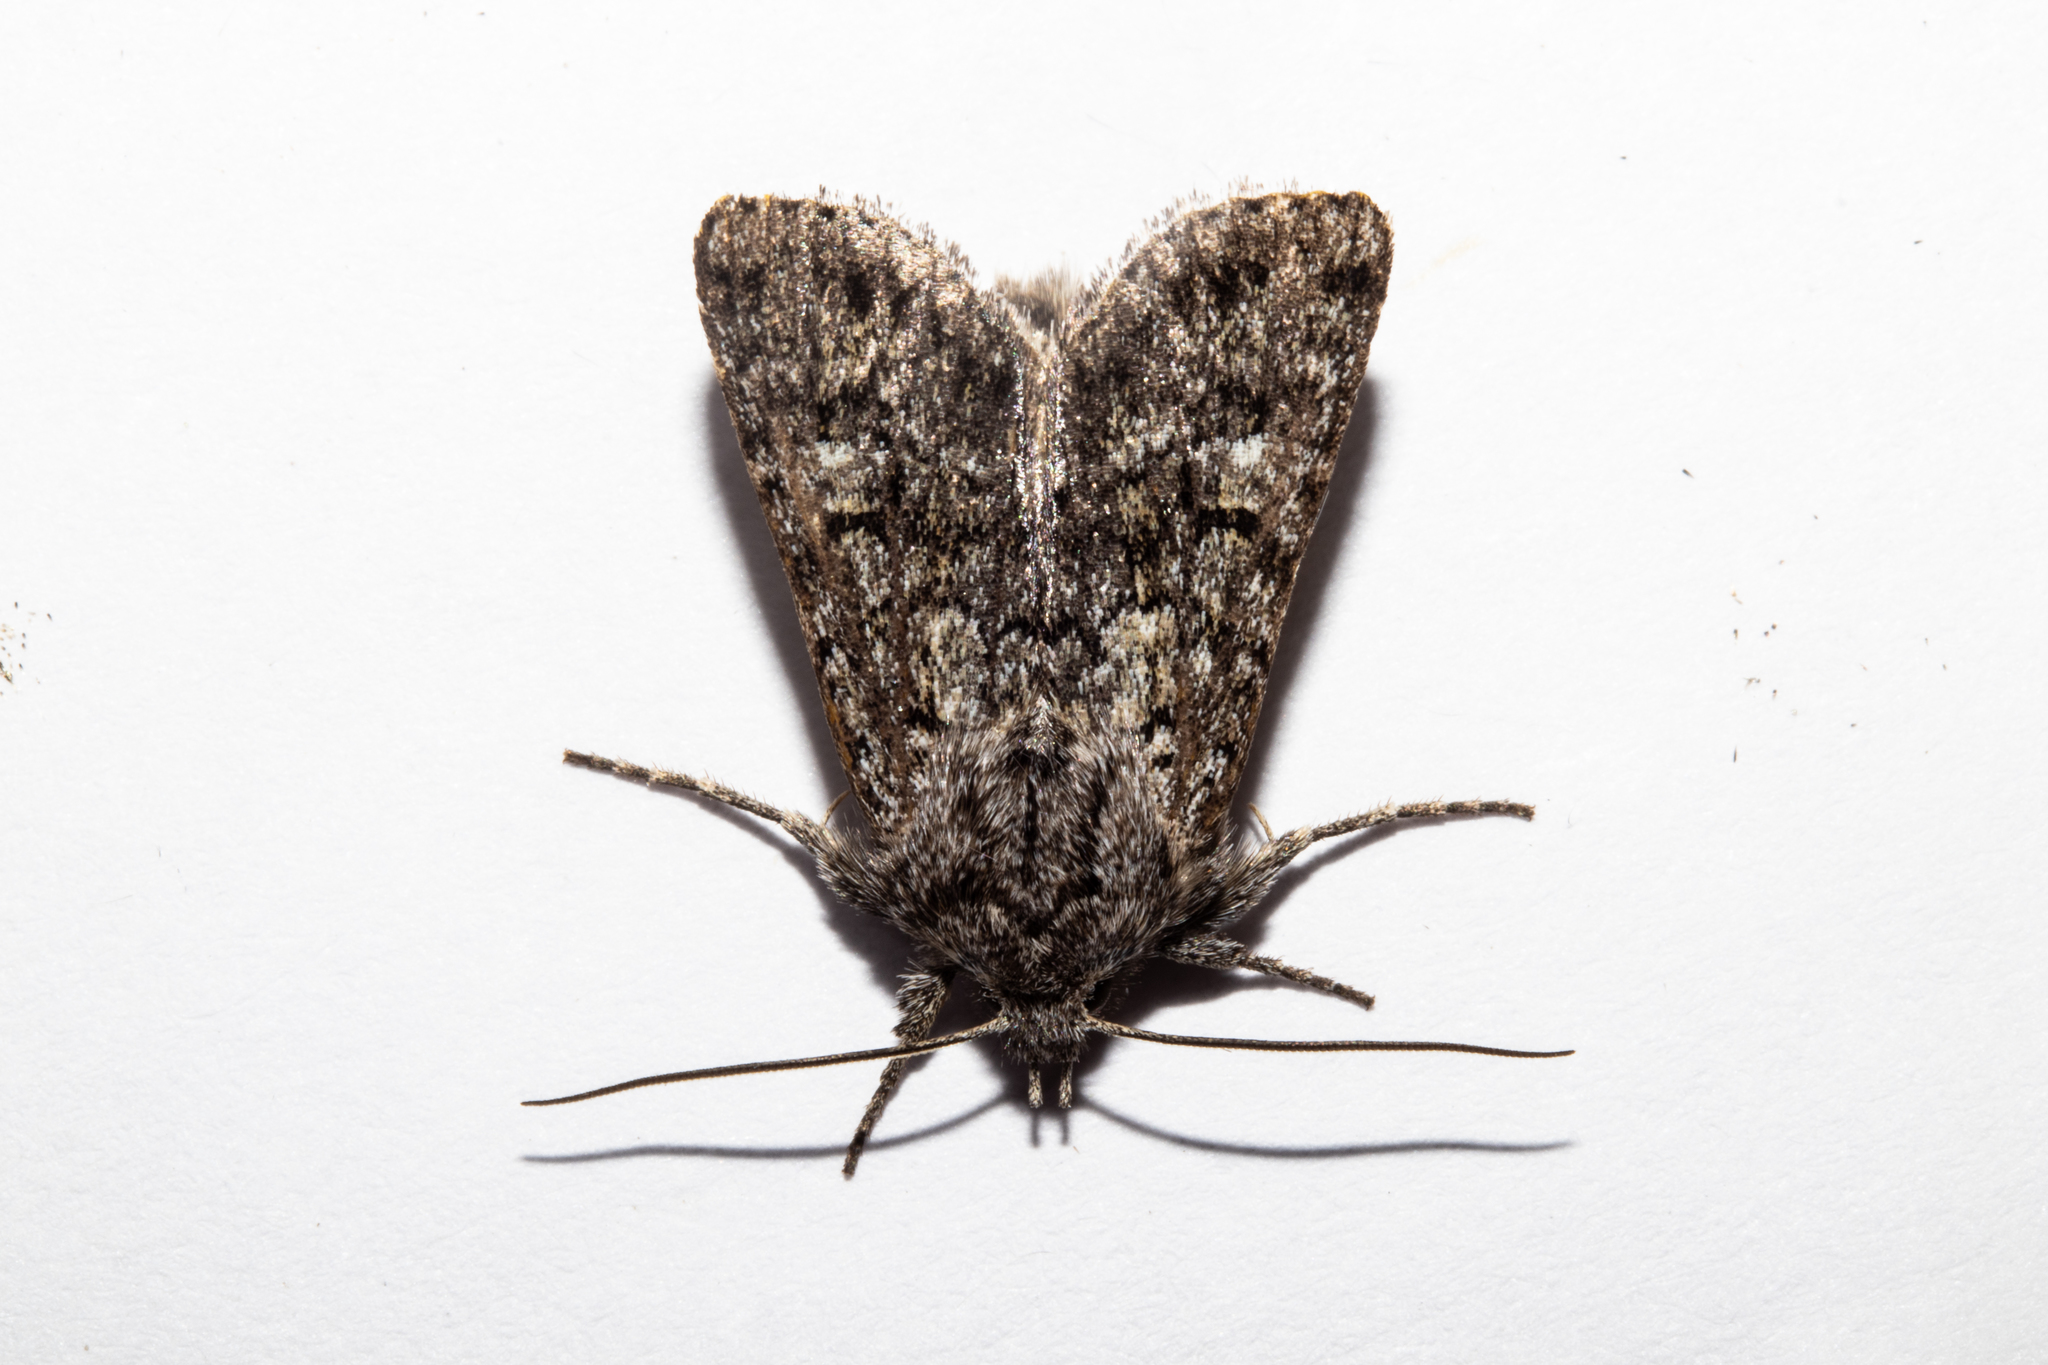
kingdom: Animalia
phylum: Arthropoda
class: Insecta
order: Lepidoptera
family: Noctuidae
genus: Physetica
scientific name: Physetica cucullina
